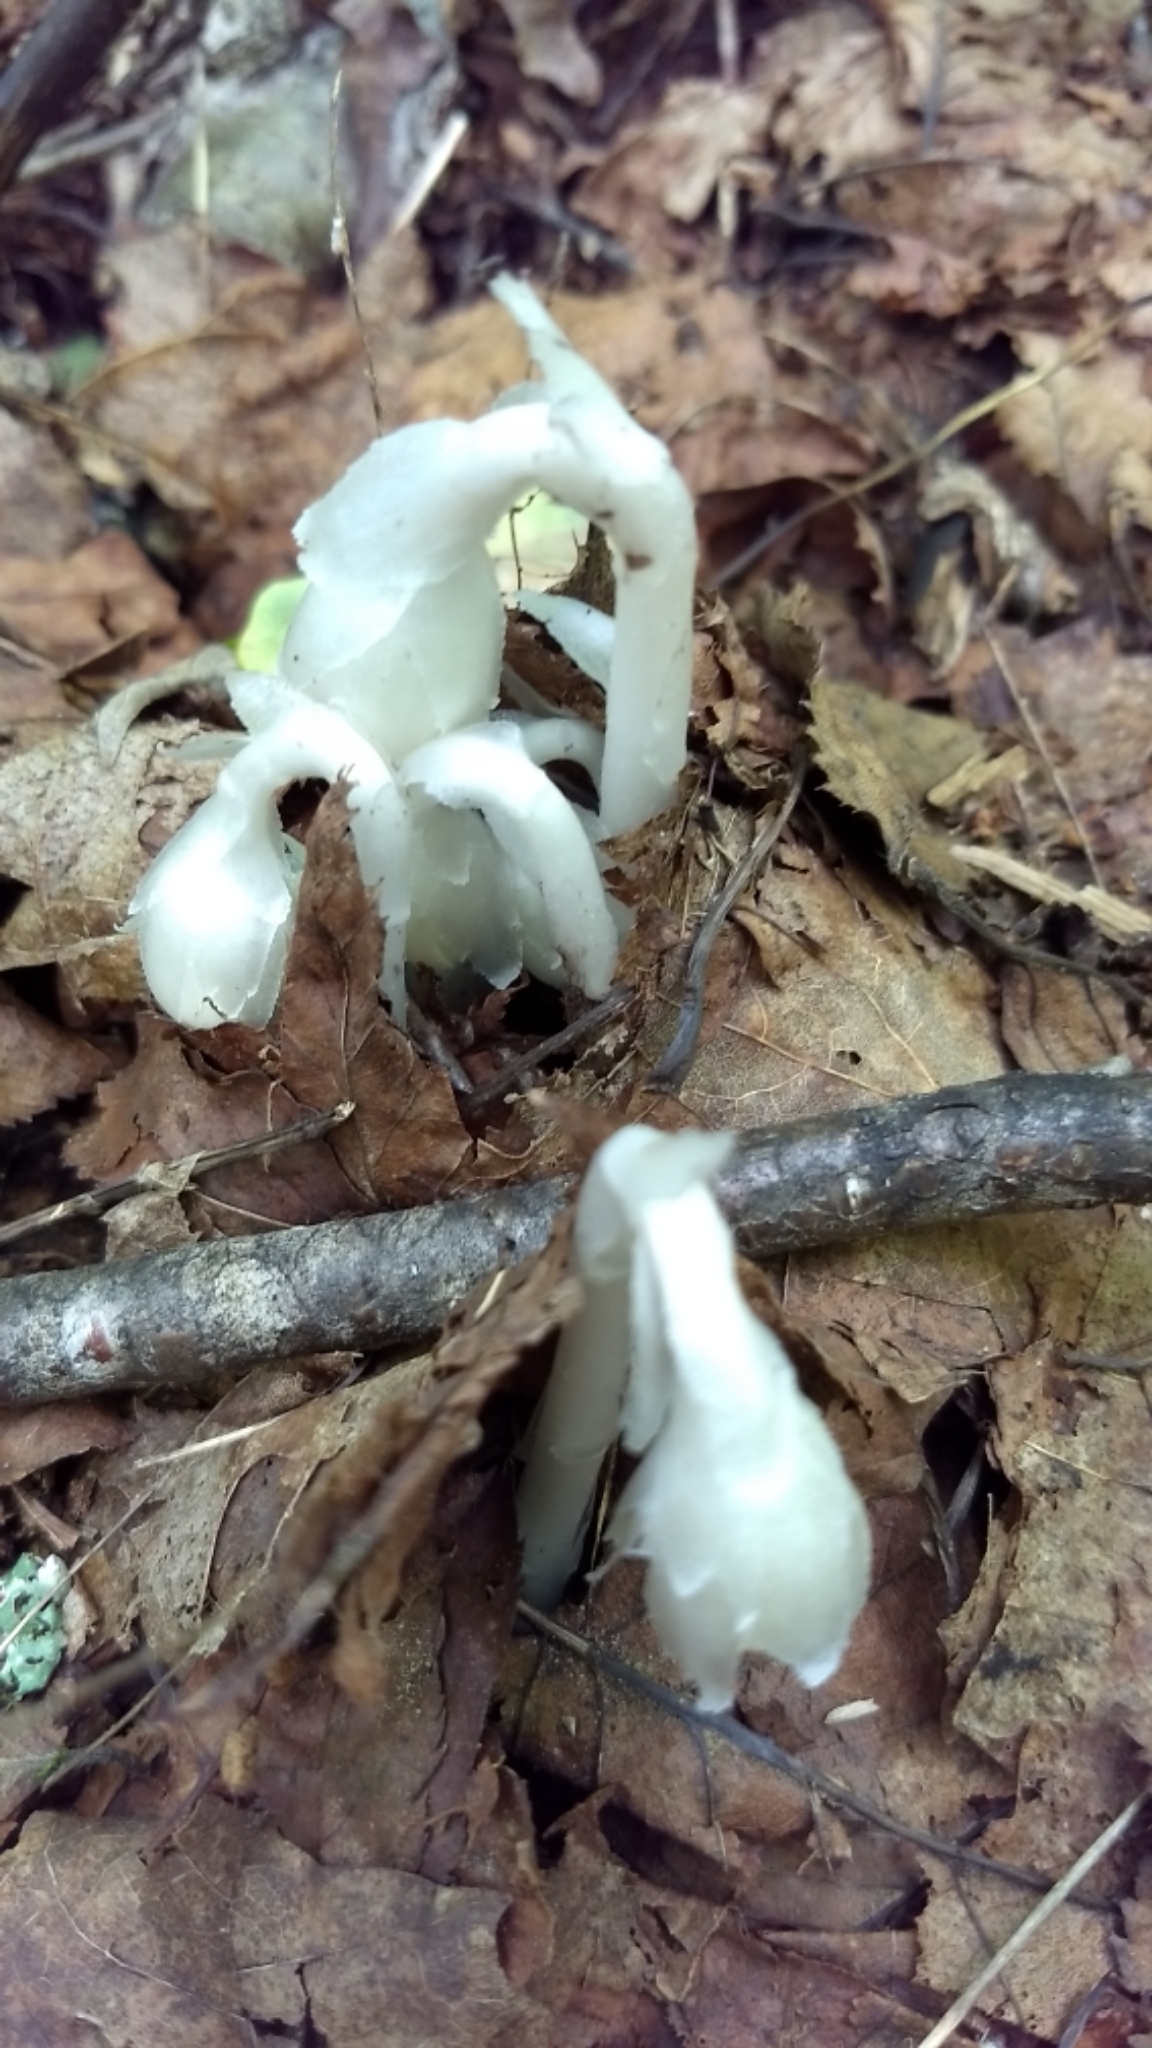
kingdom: Plantae
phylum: Tracheophyta
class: Magnoliopsida
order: Ericales
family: Ericaceae
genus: Monotropa
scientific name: Monotropa uniflora
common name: Convulsion root
